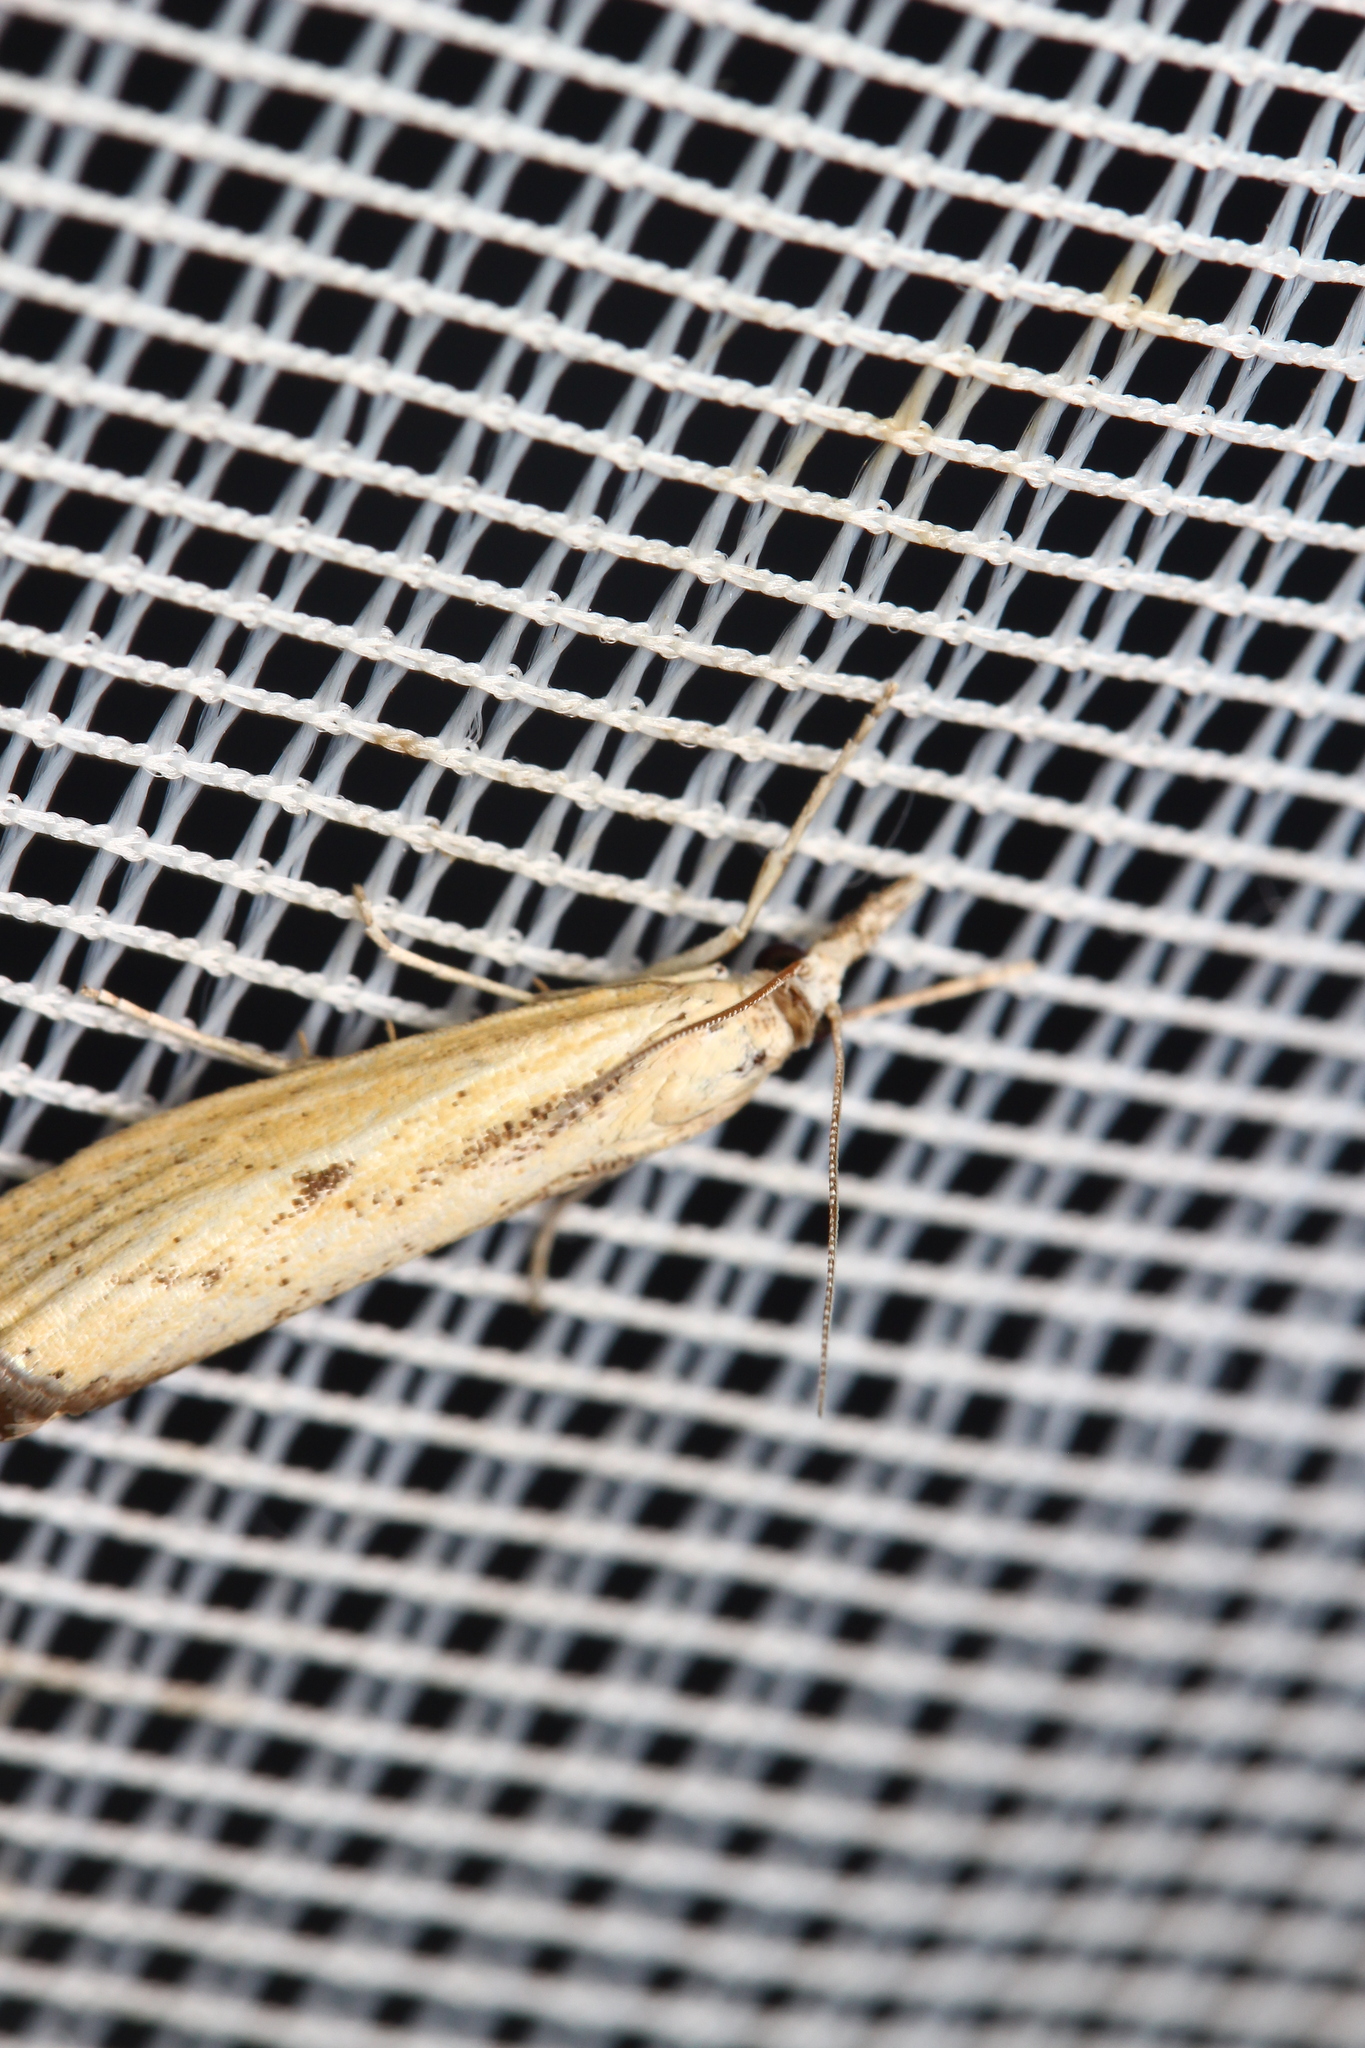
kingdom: Animalia
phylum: Arthropoda
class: Insecta
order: Lepidoptera
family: Crambidae
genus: Agriphila
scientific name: Agriphila inquinatella
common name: Barred grass-veneer
